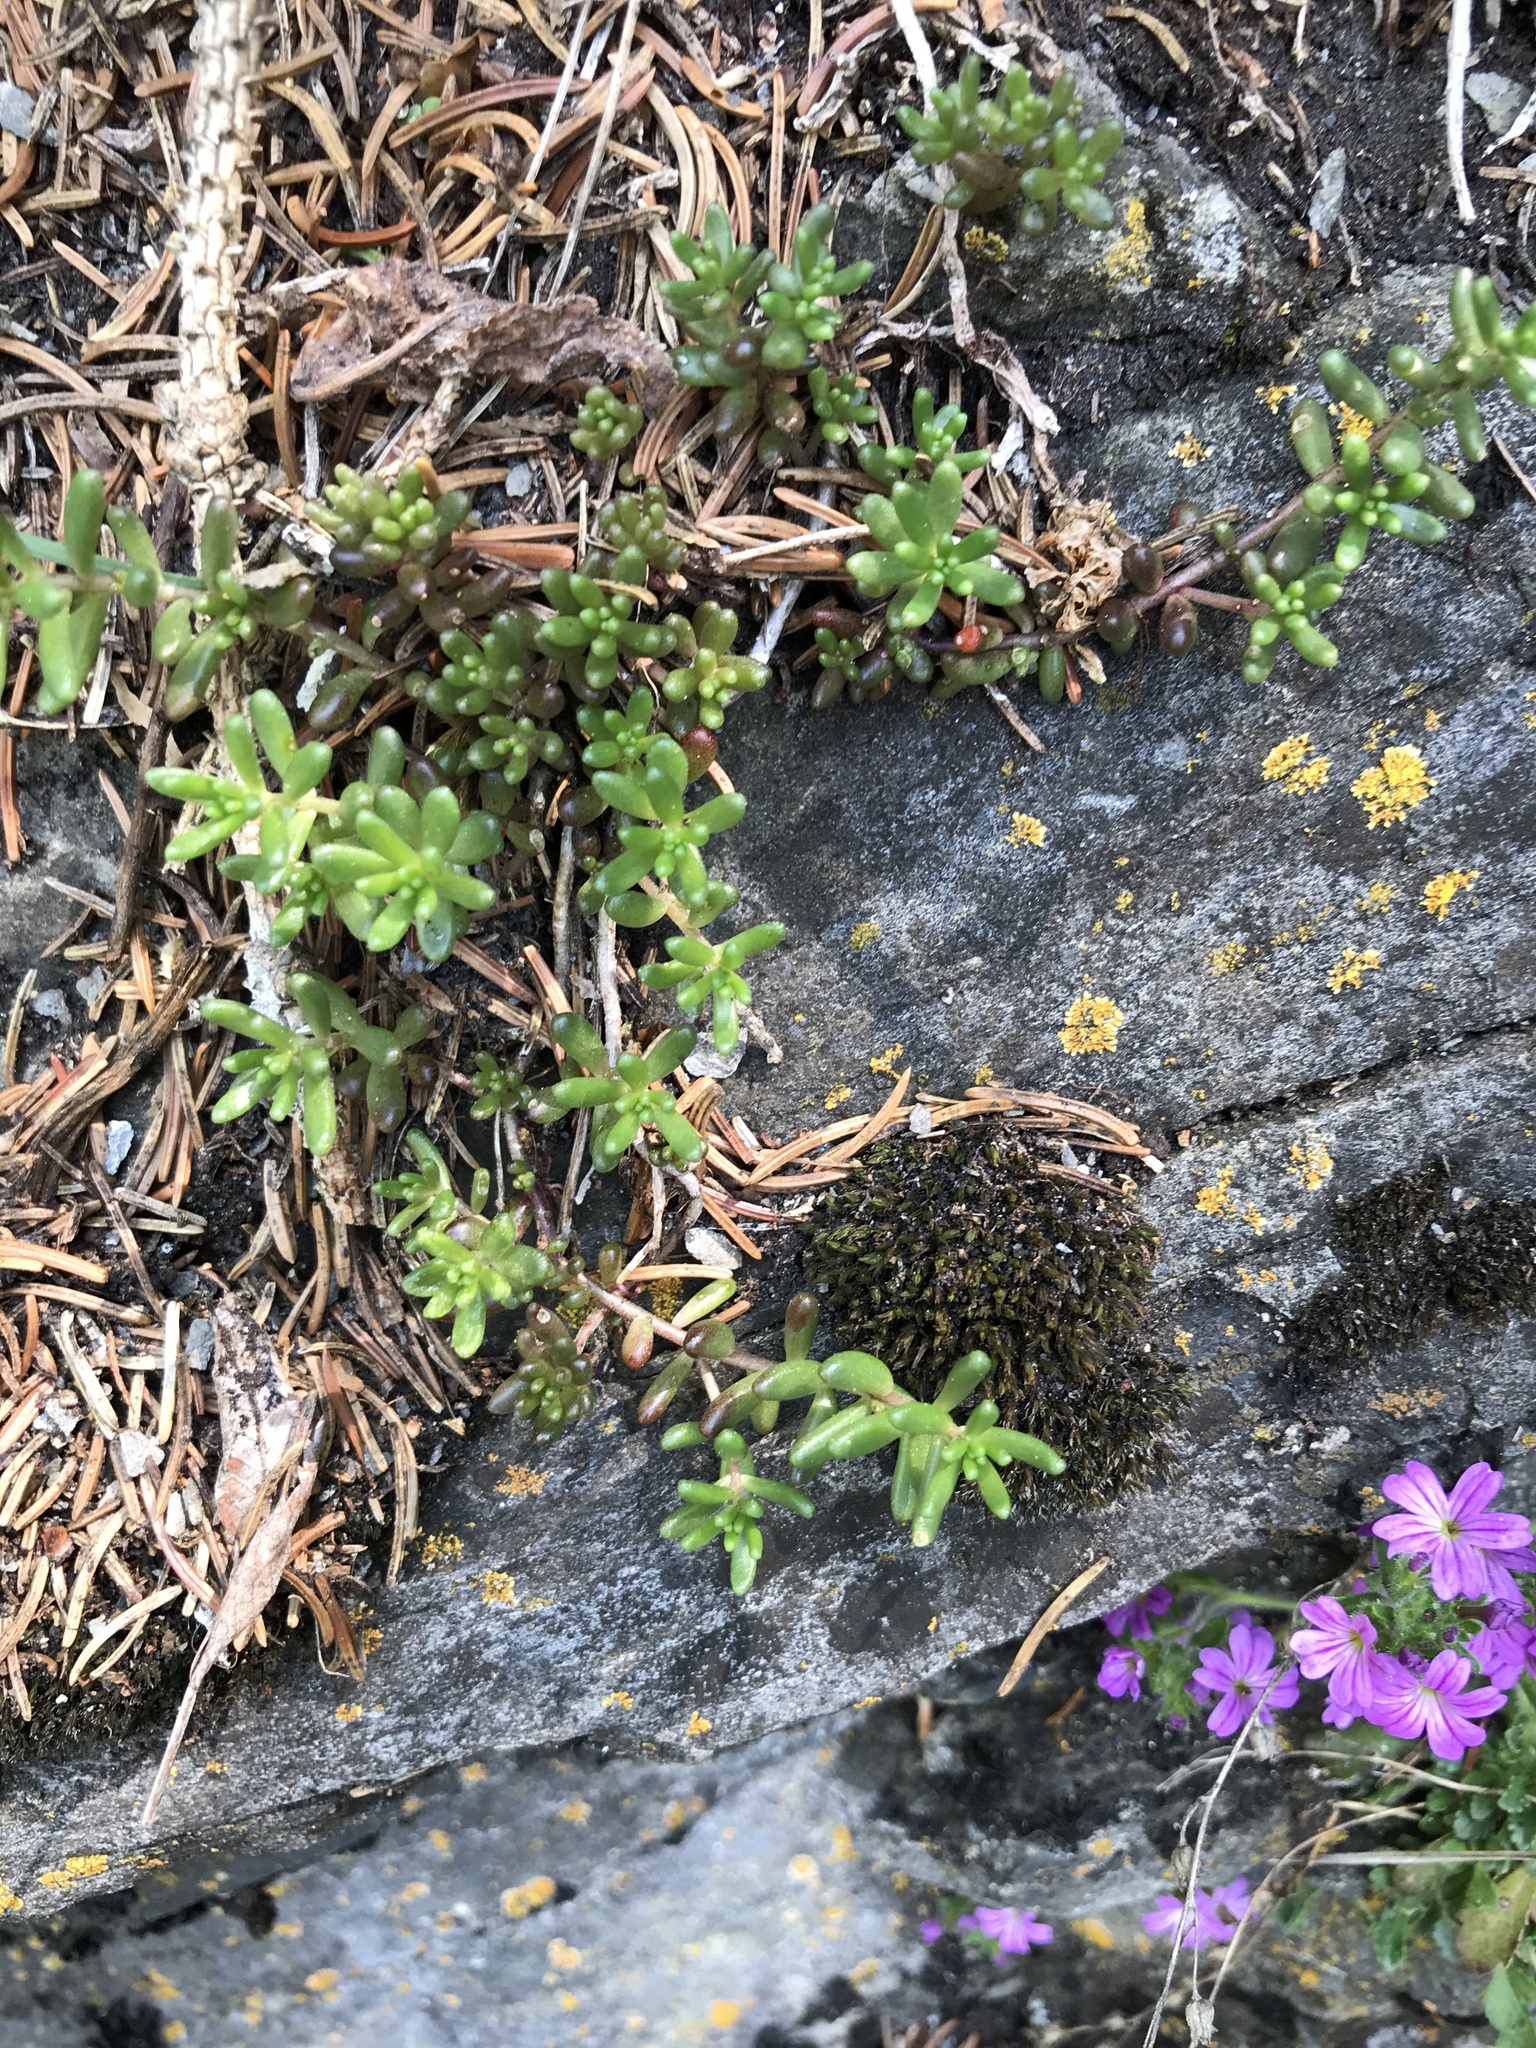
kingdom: Plantae
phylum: Tracheophyta
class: Magnoliopsida
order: Saxifragales
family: Crassulaceae
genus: Sedum
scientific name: Sedum album
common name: White stonecrop
